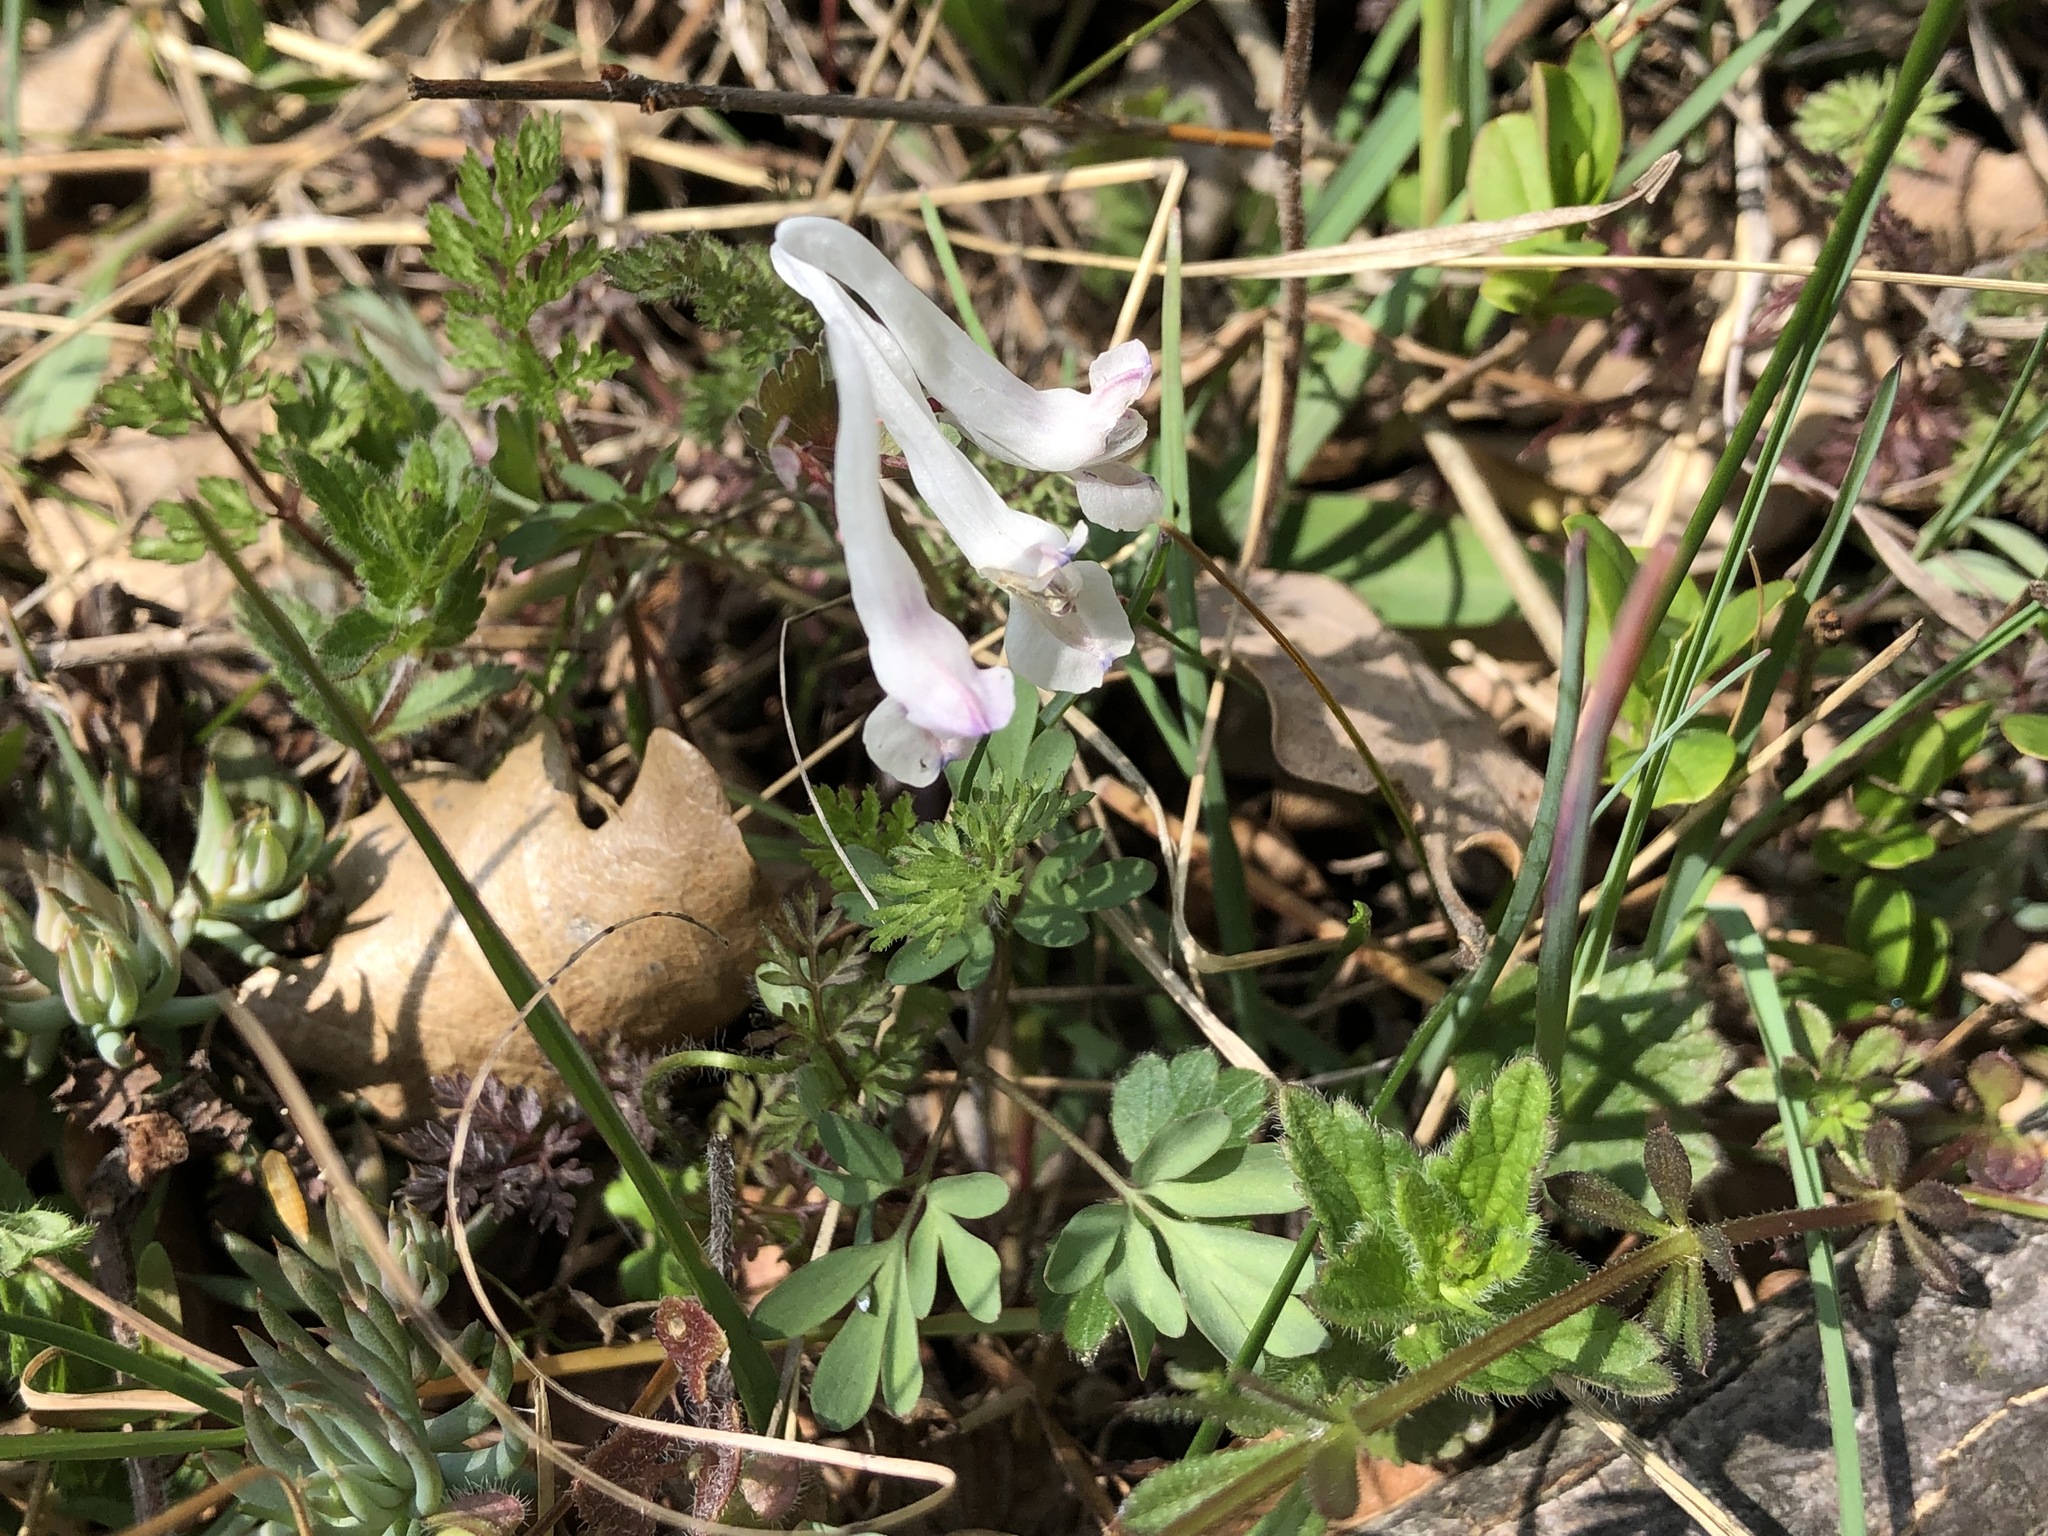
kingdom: Plantae
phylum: Tracheophyta
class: Magnoliopsida
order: Ranunculales
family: Papaveraceae
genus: Corydalis
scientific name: Corydalis solida
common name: Bird-in-a-bush
